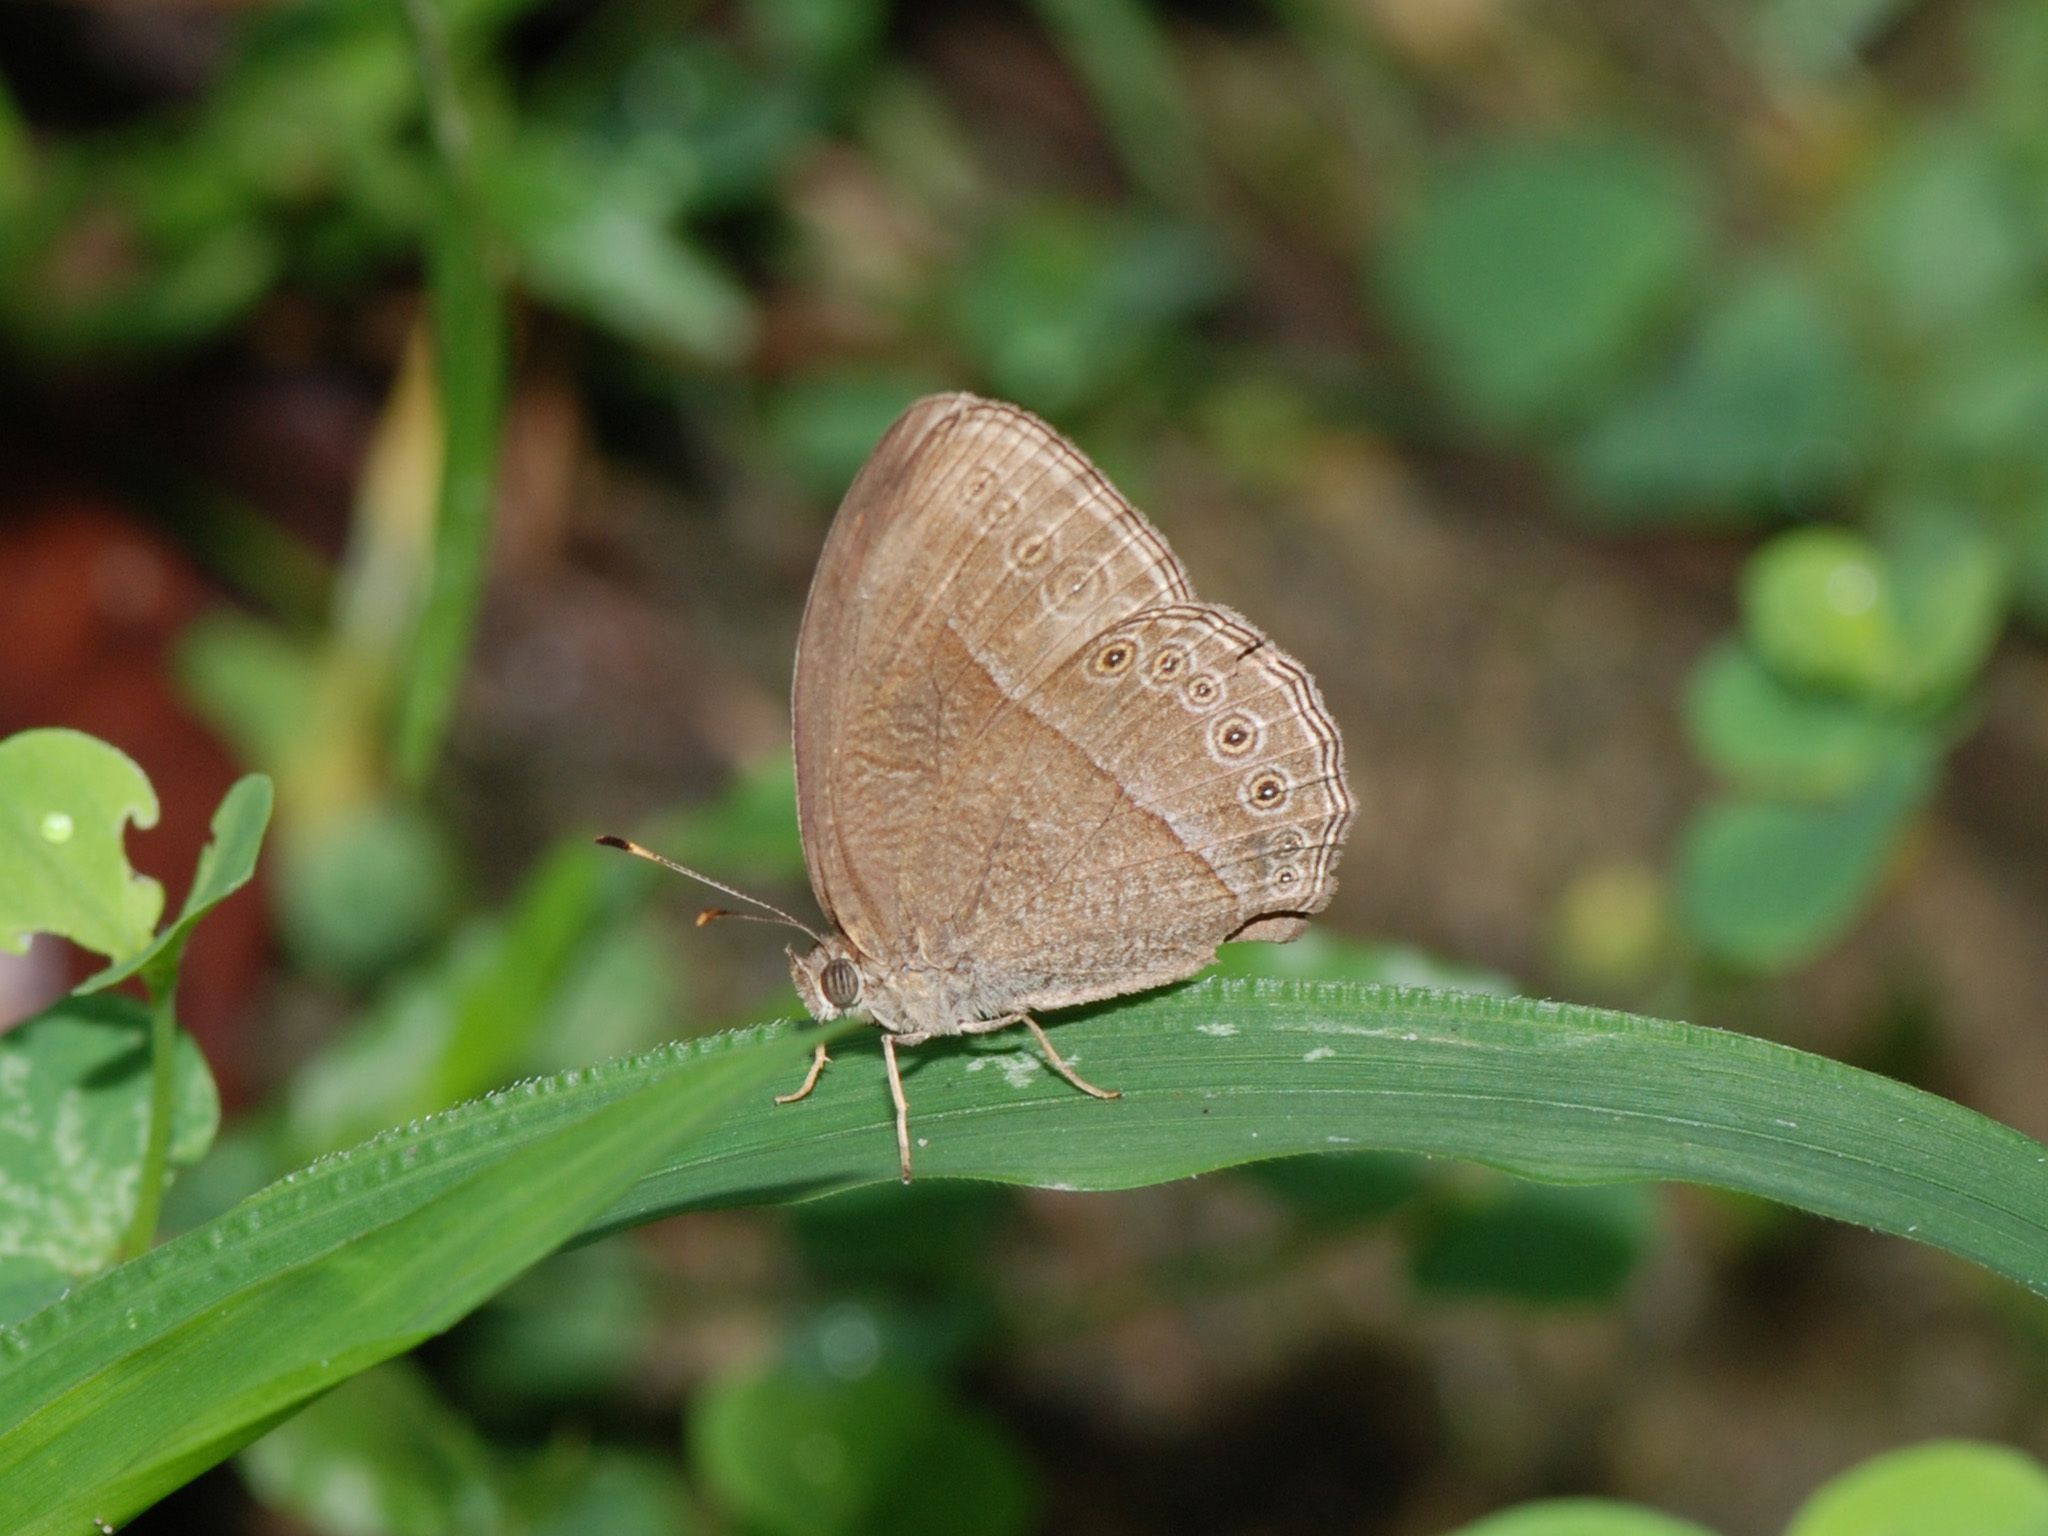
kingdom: Animalia
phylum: Arthropoda
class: Insecta
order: Lepidoptera
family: Nymphalidae
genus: Mycalesis
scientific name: Mycalesis Telinga janardana
